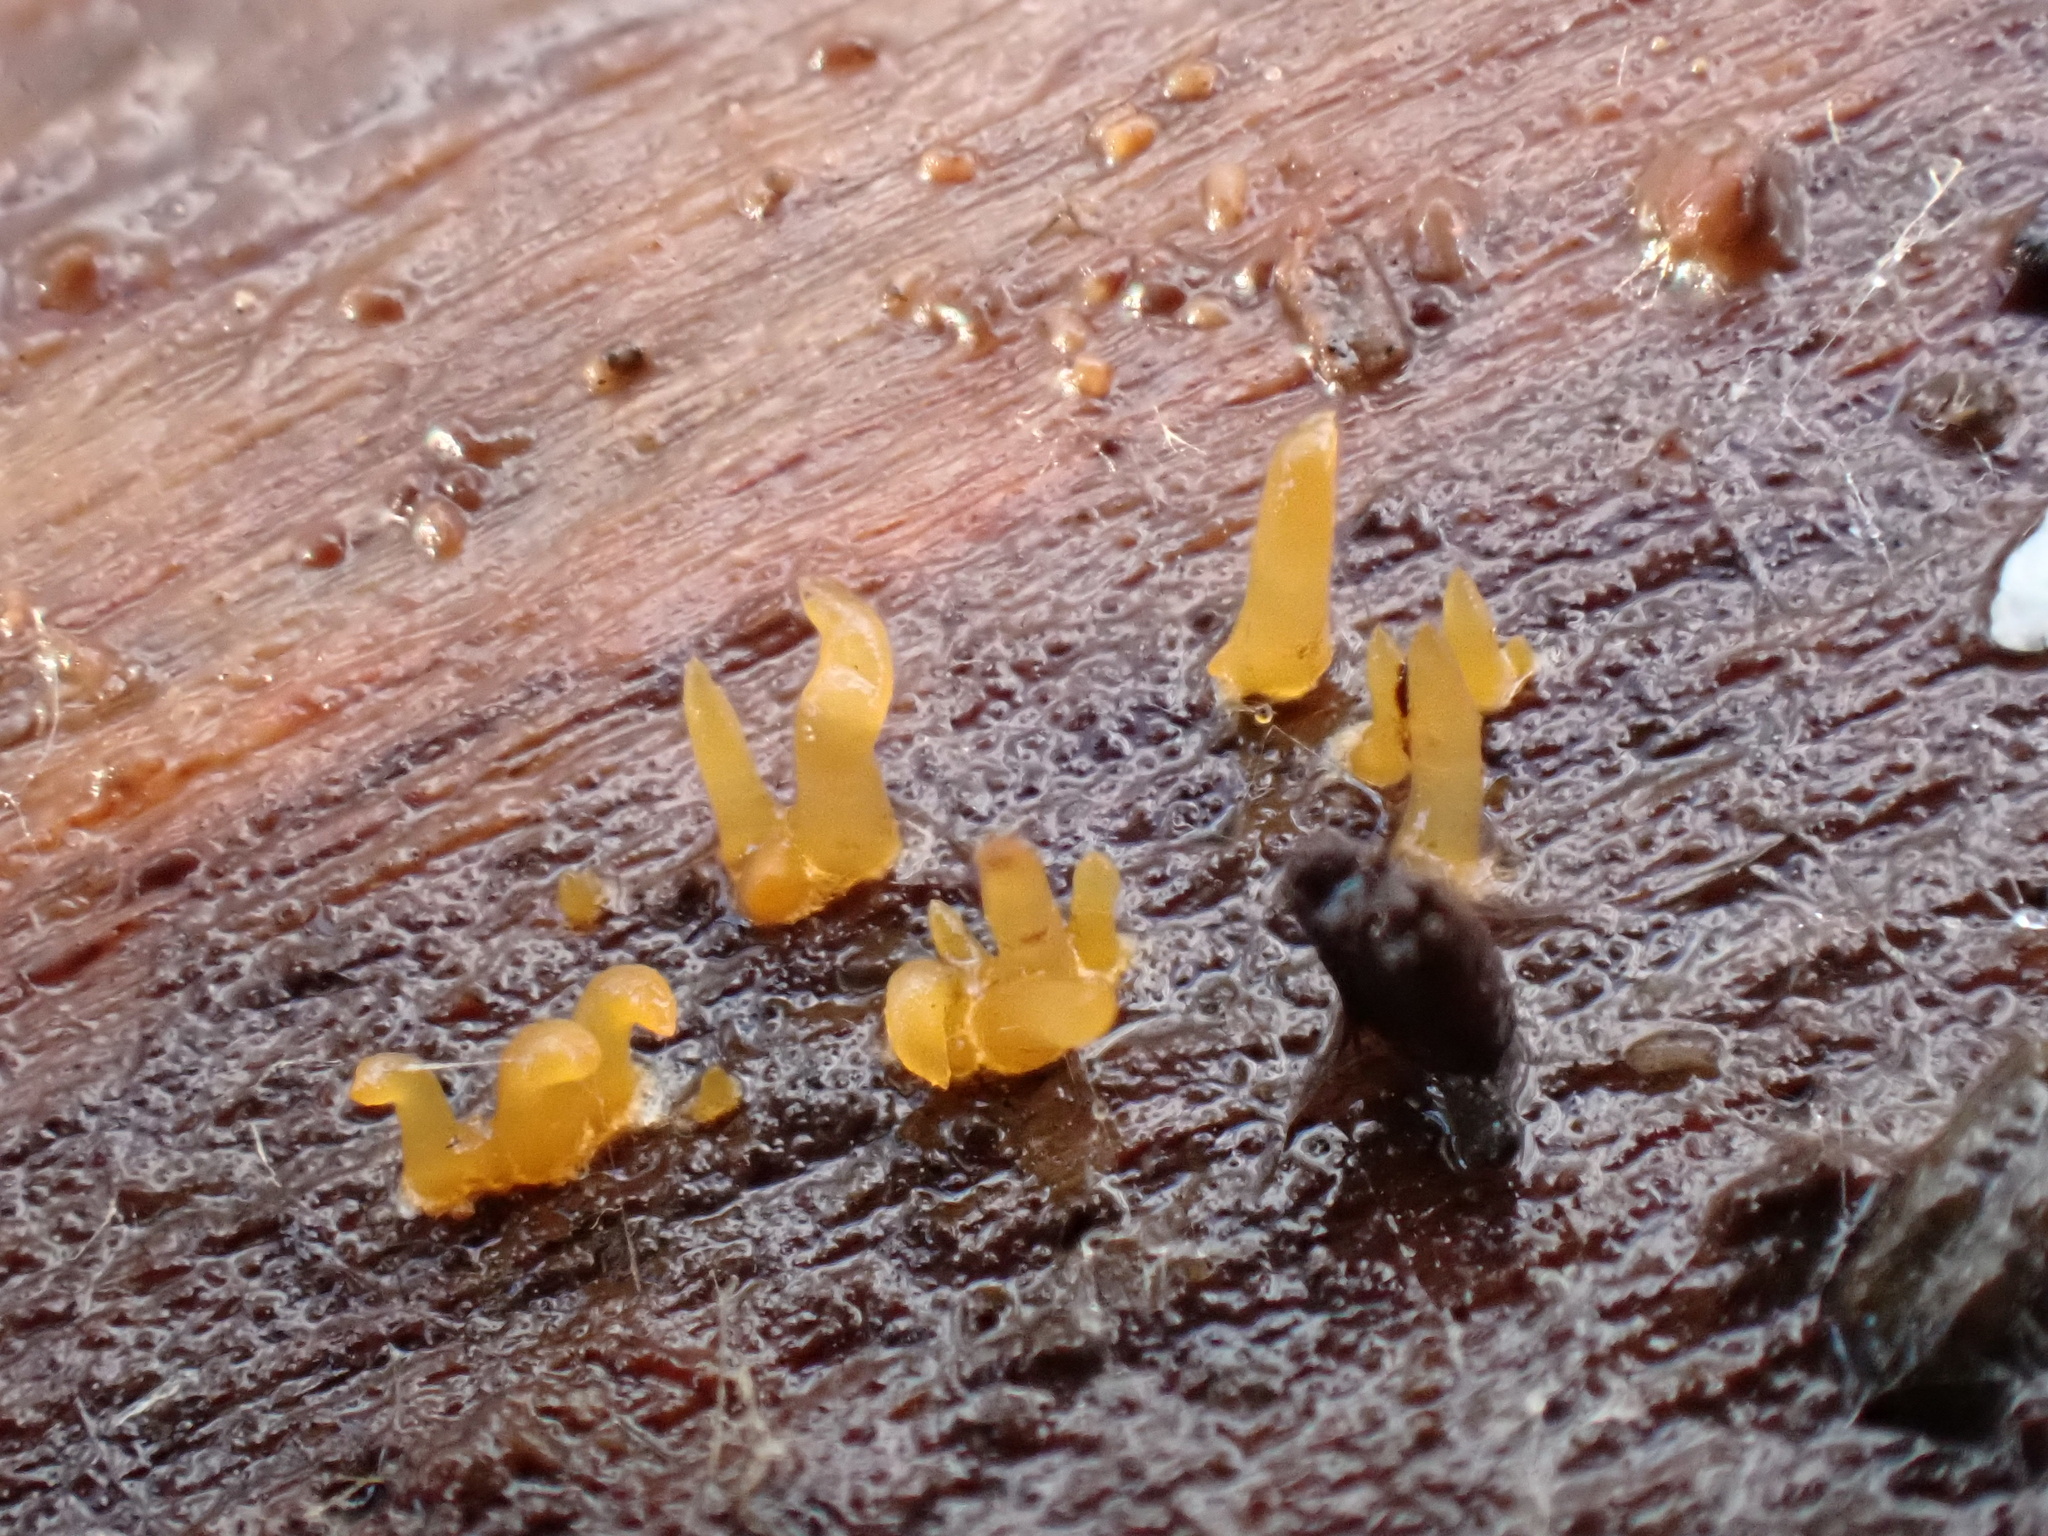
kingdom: Fungi
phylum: Basidiomycota
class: Dacrymycetes
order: Dacrymycetales
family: Dacrymycetaceae
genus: Calocera
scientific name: Calocera cornea
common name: Small stagshorn
